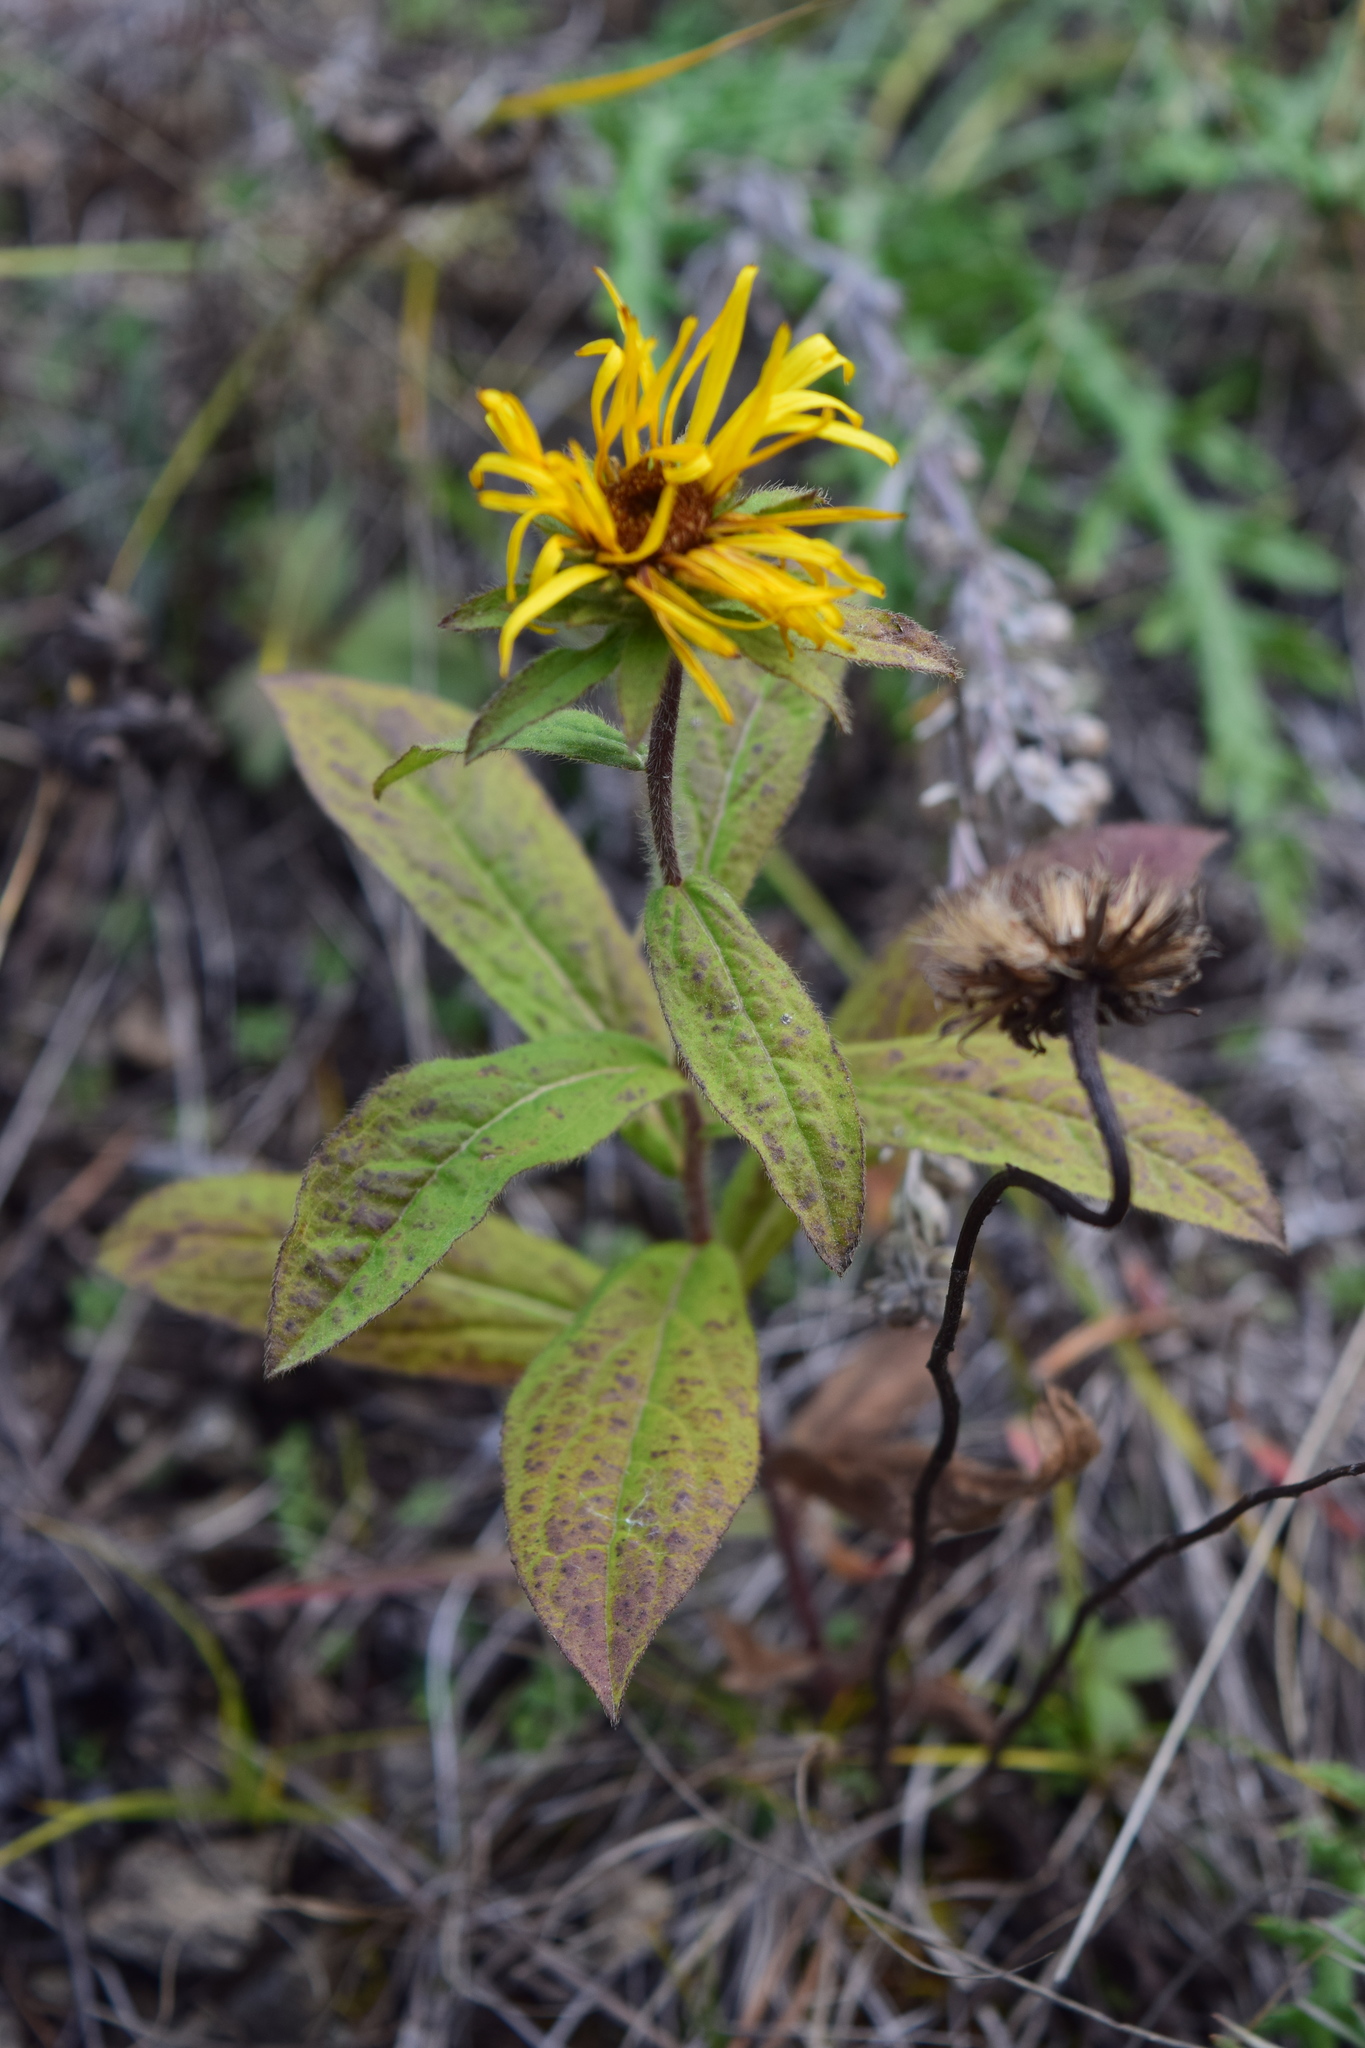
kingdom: Plantae
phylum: Tracheophyta
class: Magnoliopsida
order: Asterales
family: Asteraceae
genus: Pentanema
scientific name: Pentanema hirtum
